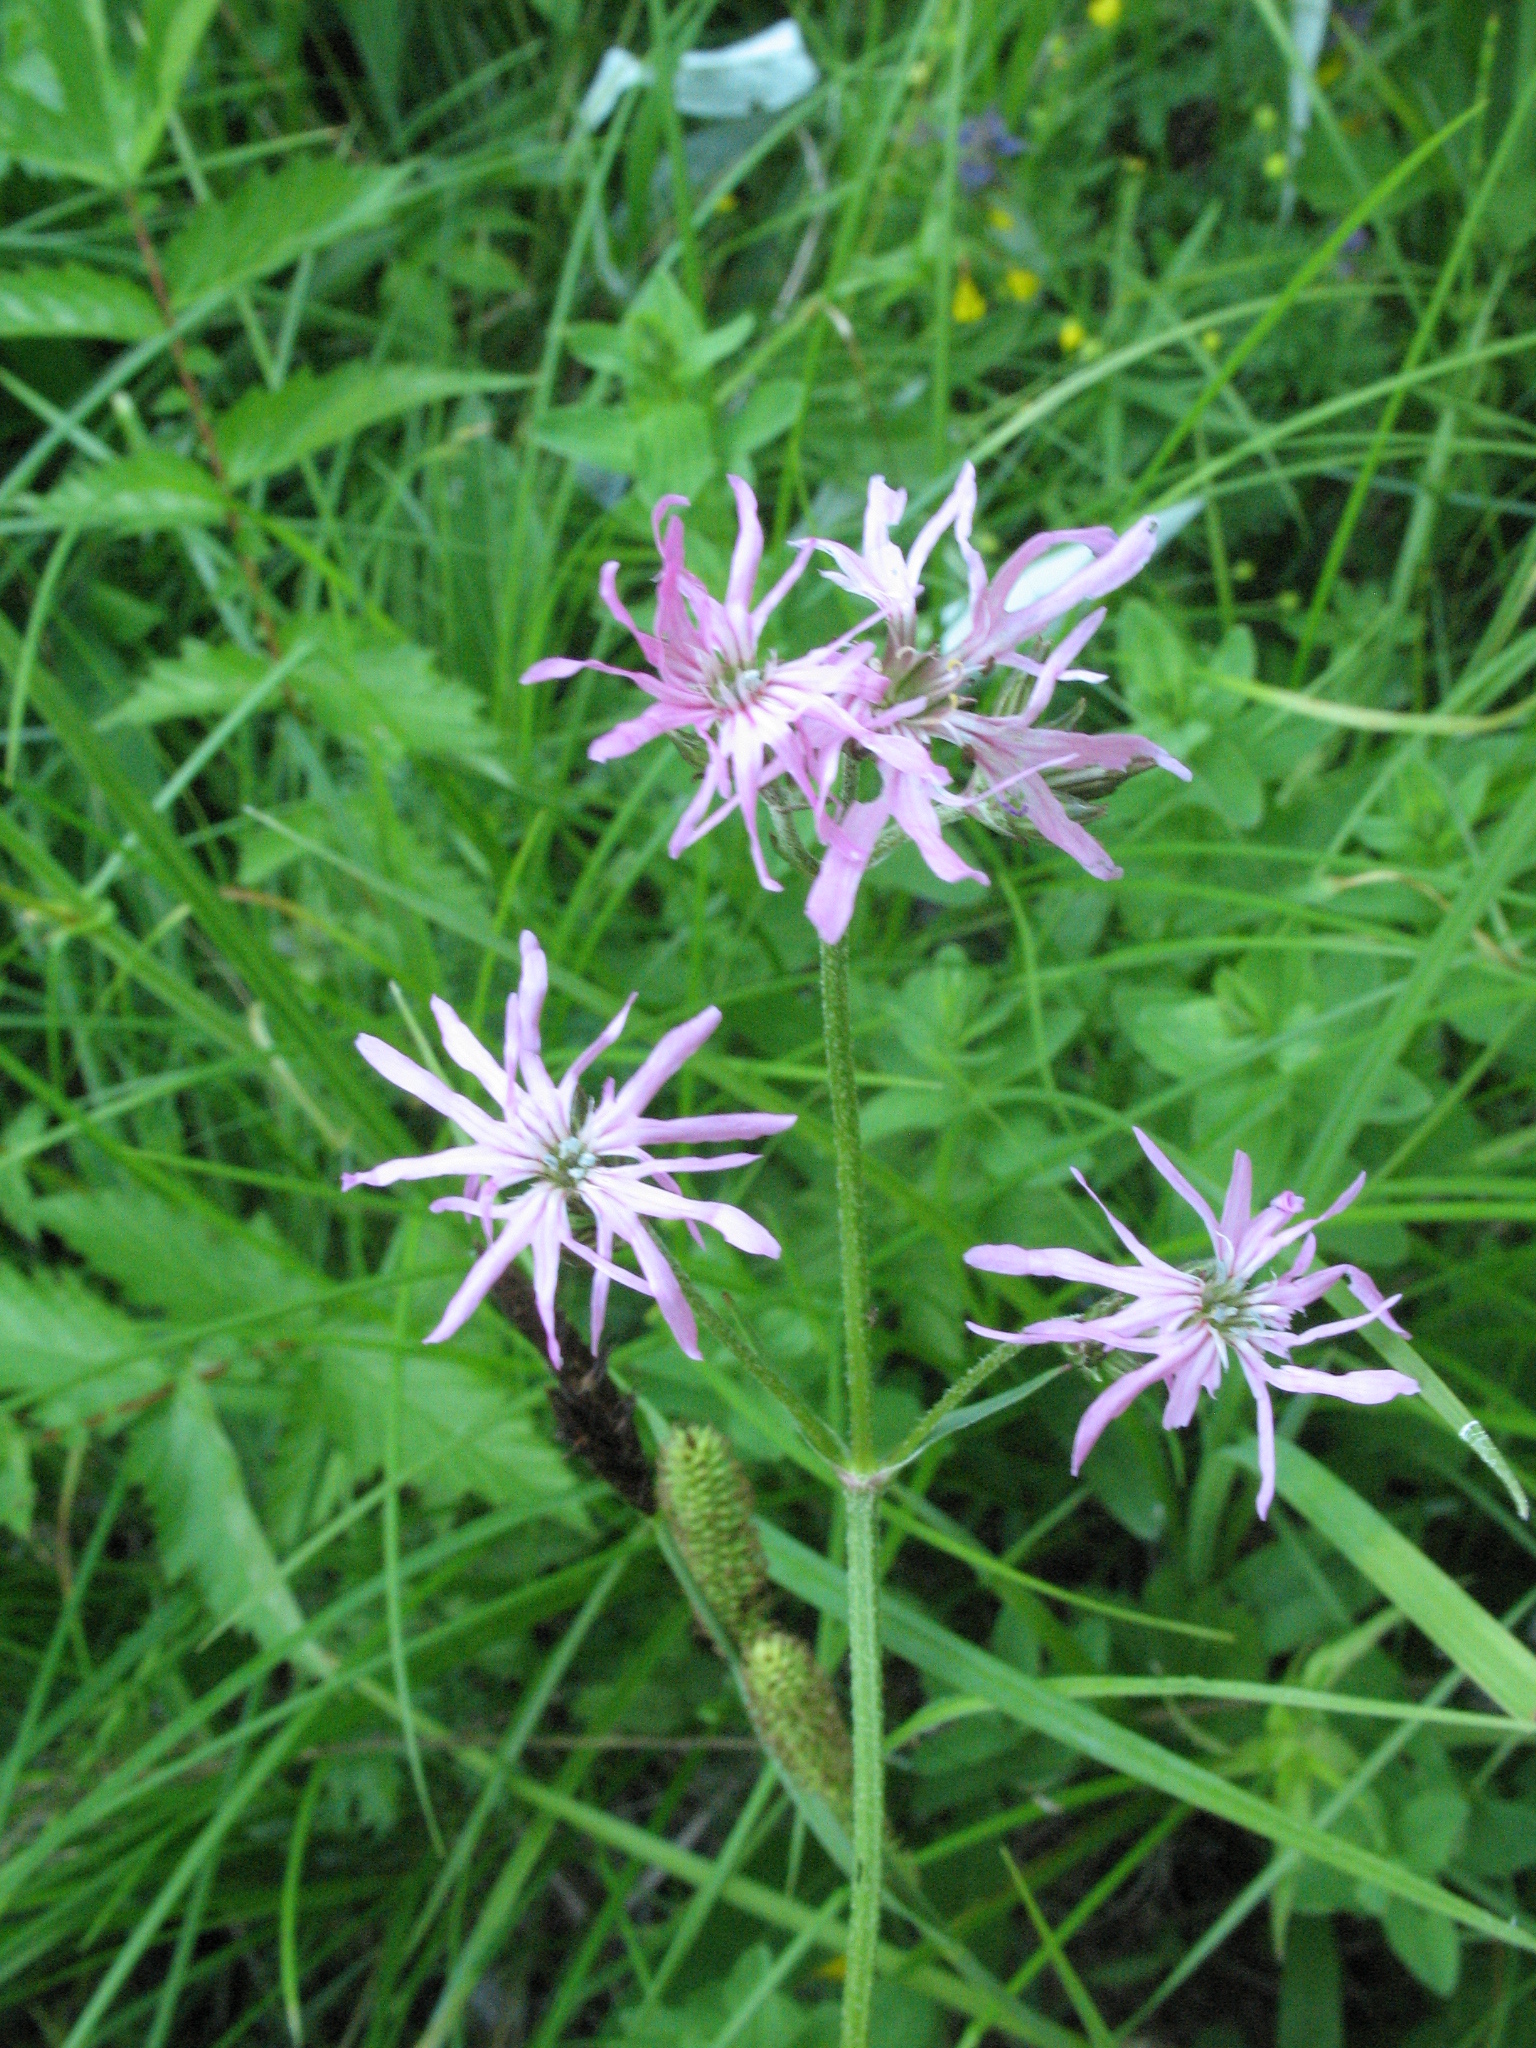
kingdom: Plantae
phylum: Tracheophyta
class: Magnoliopsida
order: Caryophyllales
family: Caryophyllaceae
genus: Silene
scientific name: Silene flos-cuculi
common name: Ragged-robin
